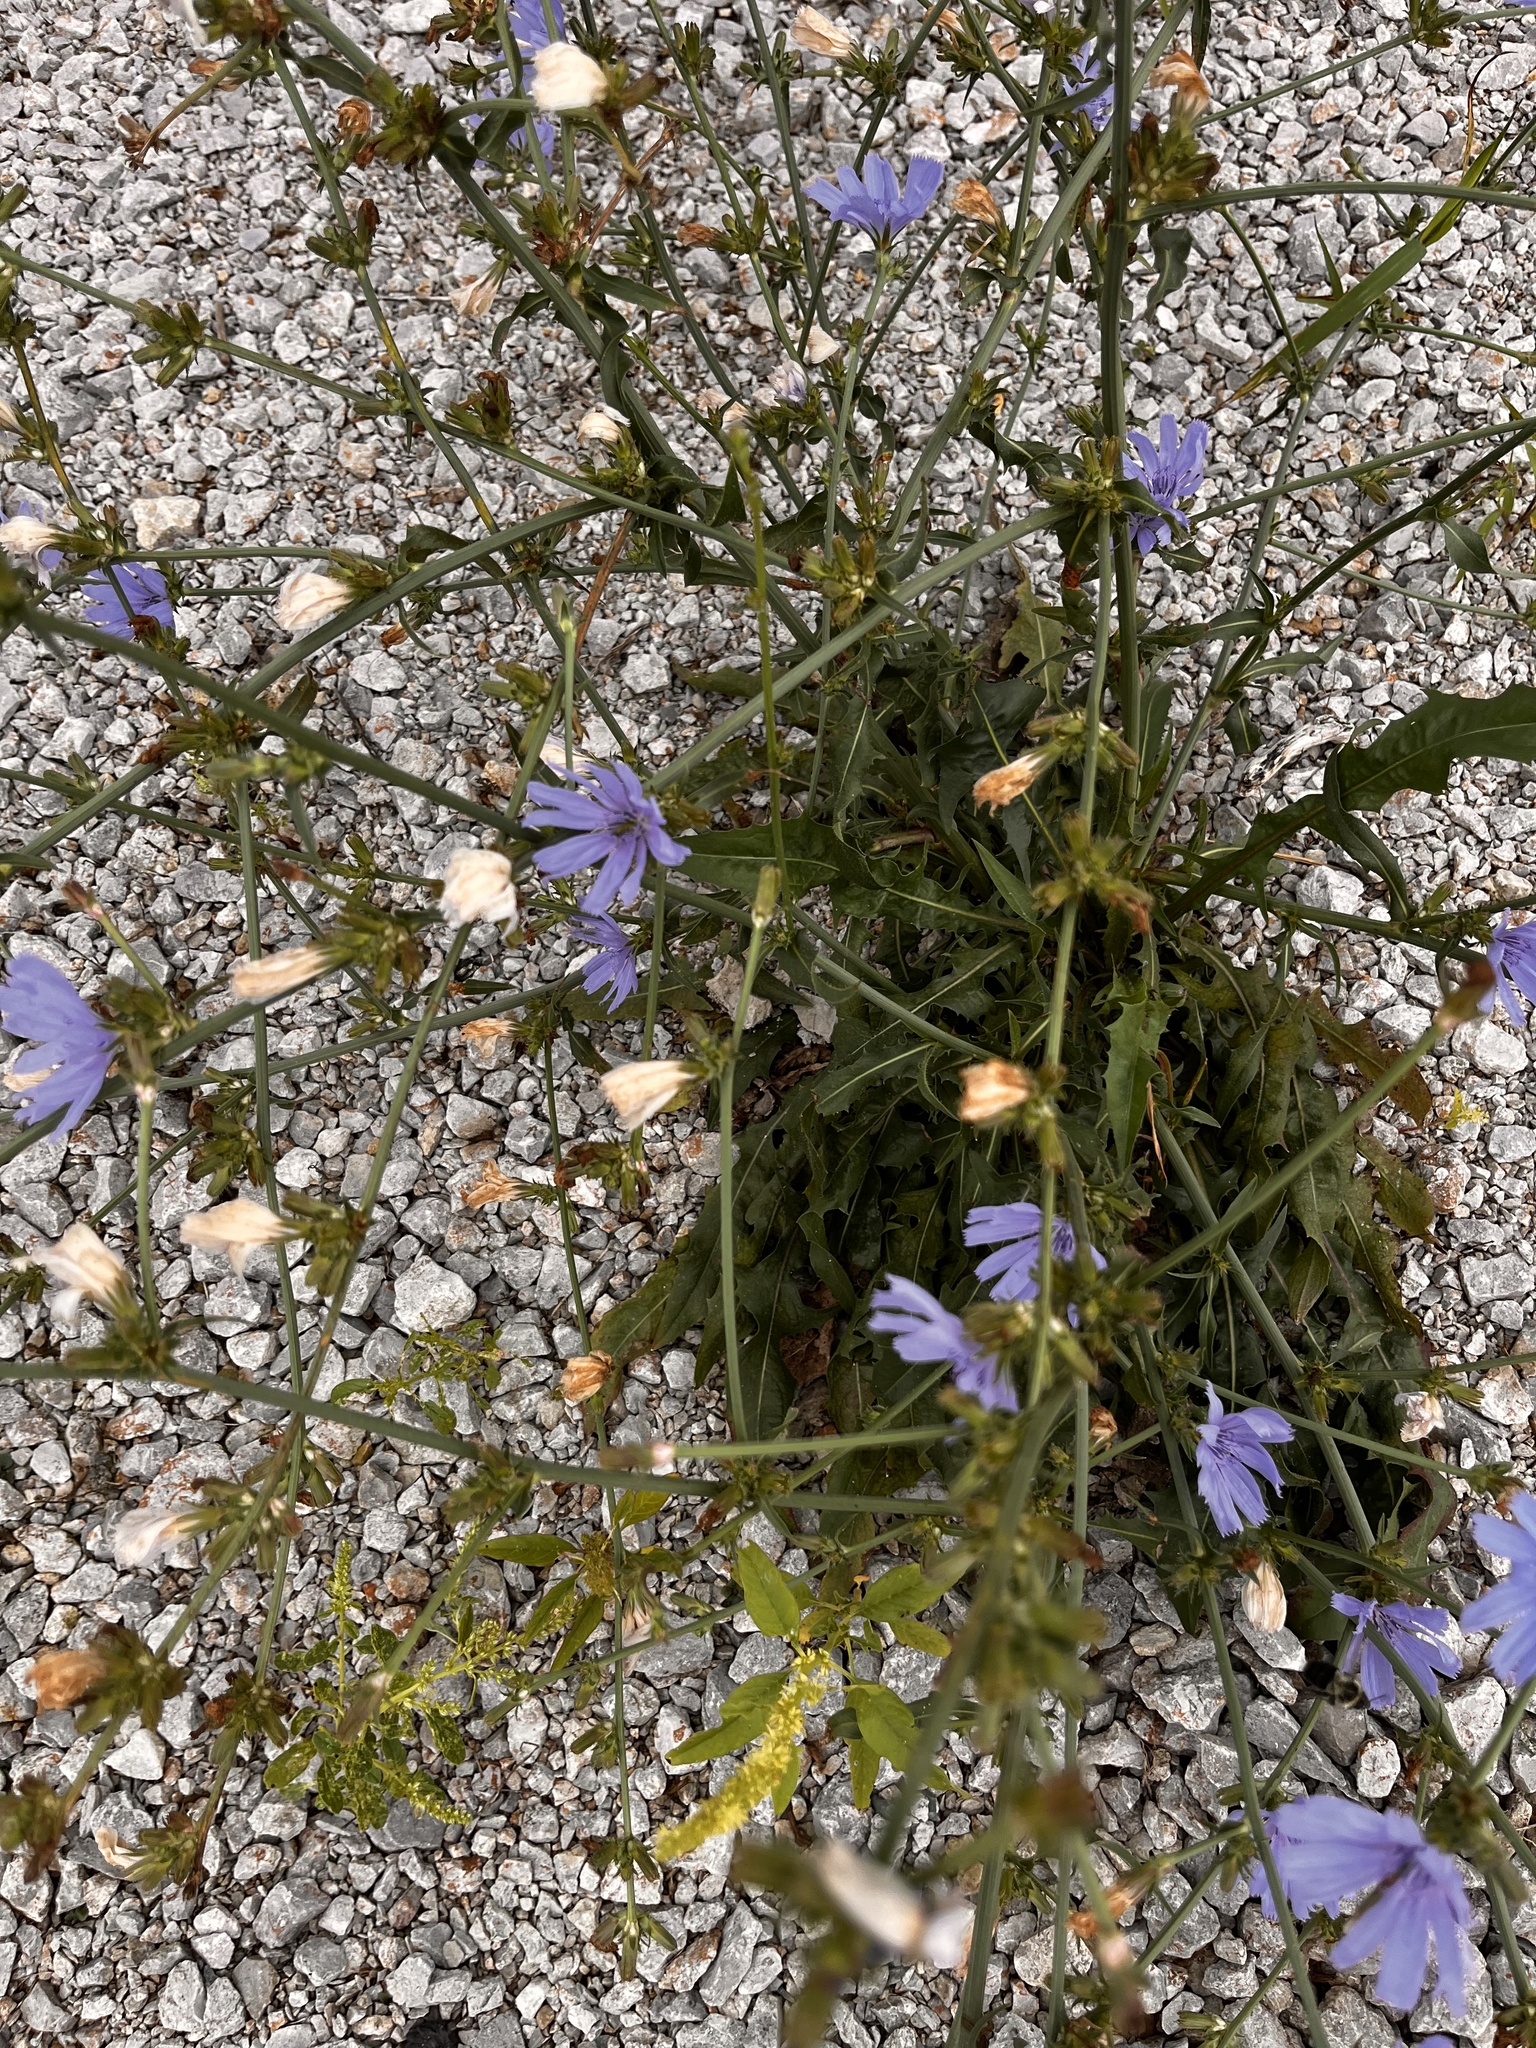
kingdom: Plantae
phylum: Tracheophyta
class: Magnoliopsida
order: Asterales
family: Asteraceae
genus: Cichorium
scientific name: Cichorium intybus
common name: Chicory
